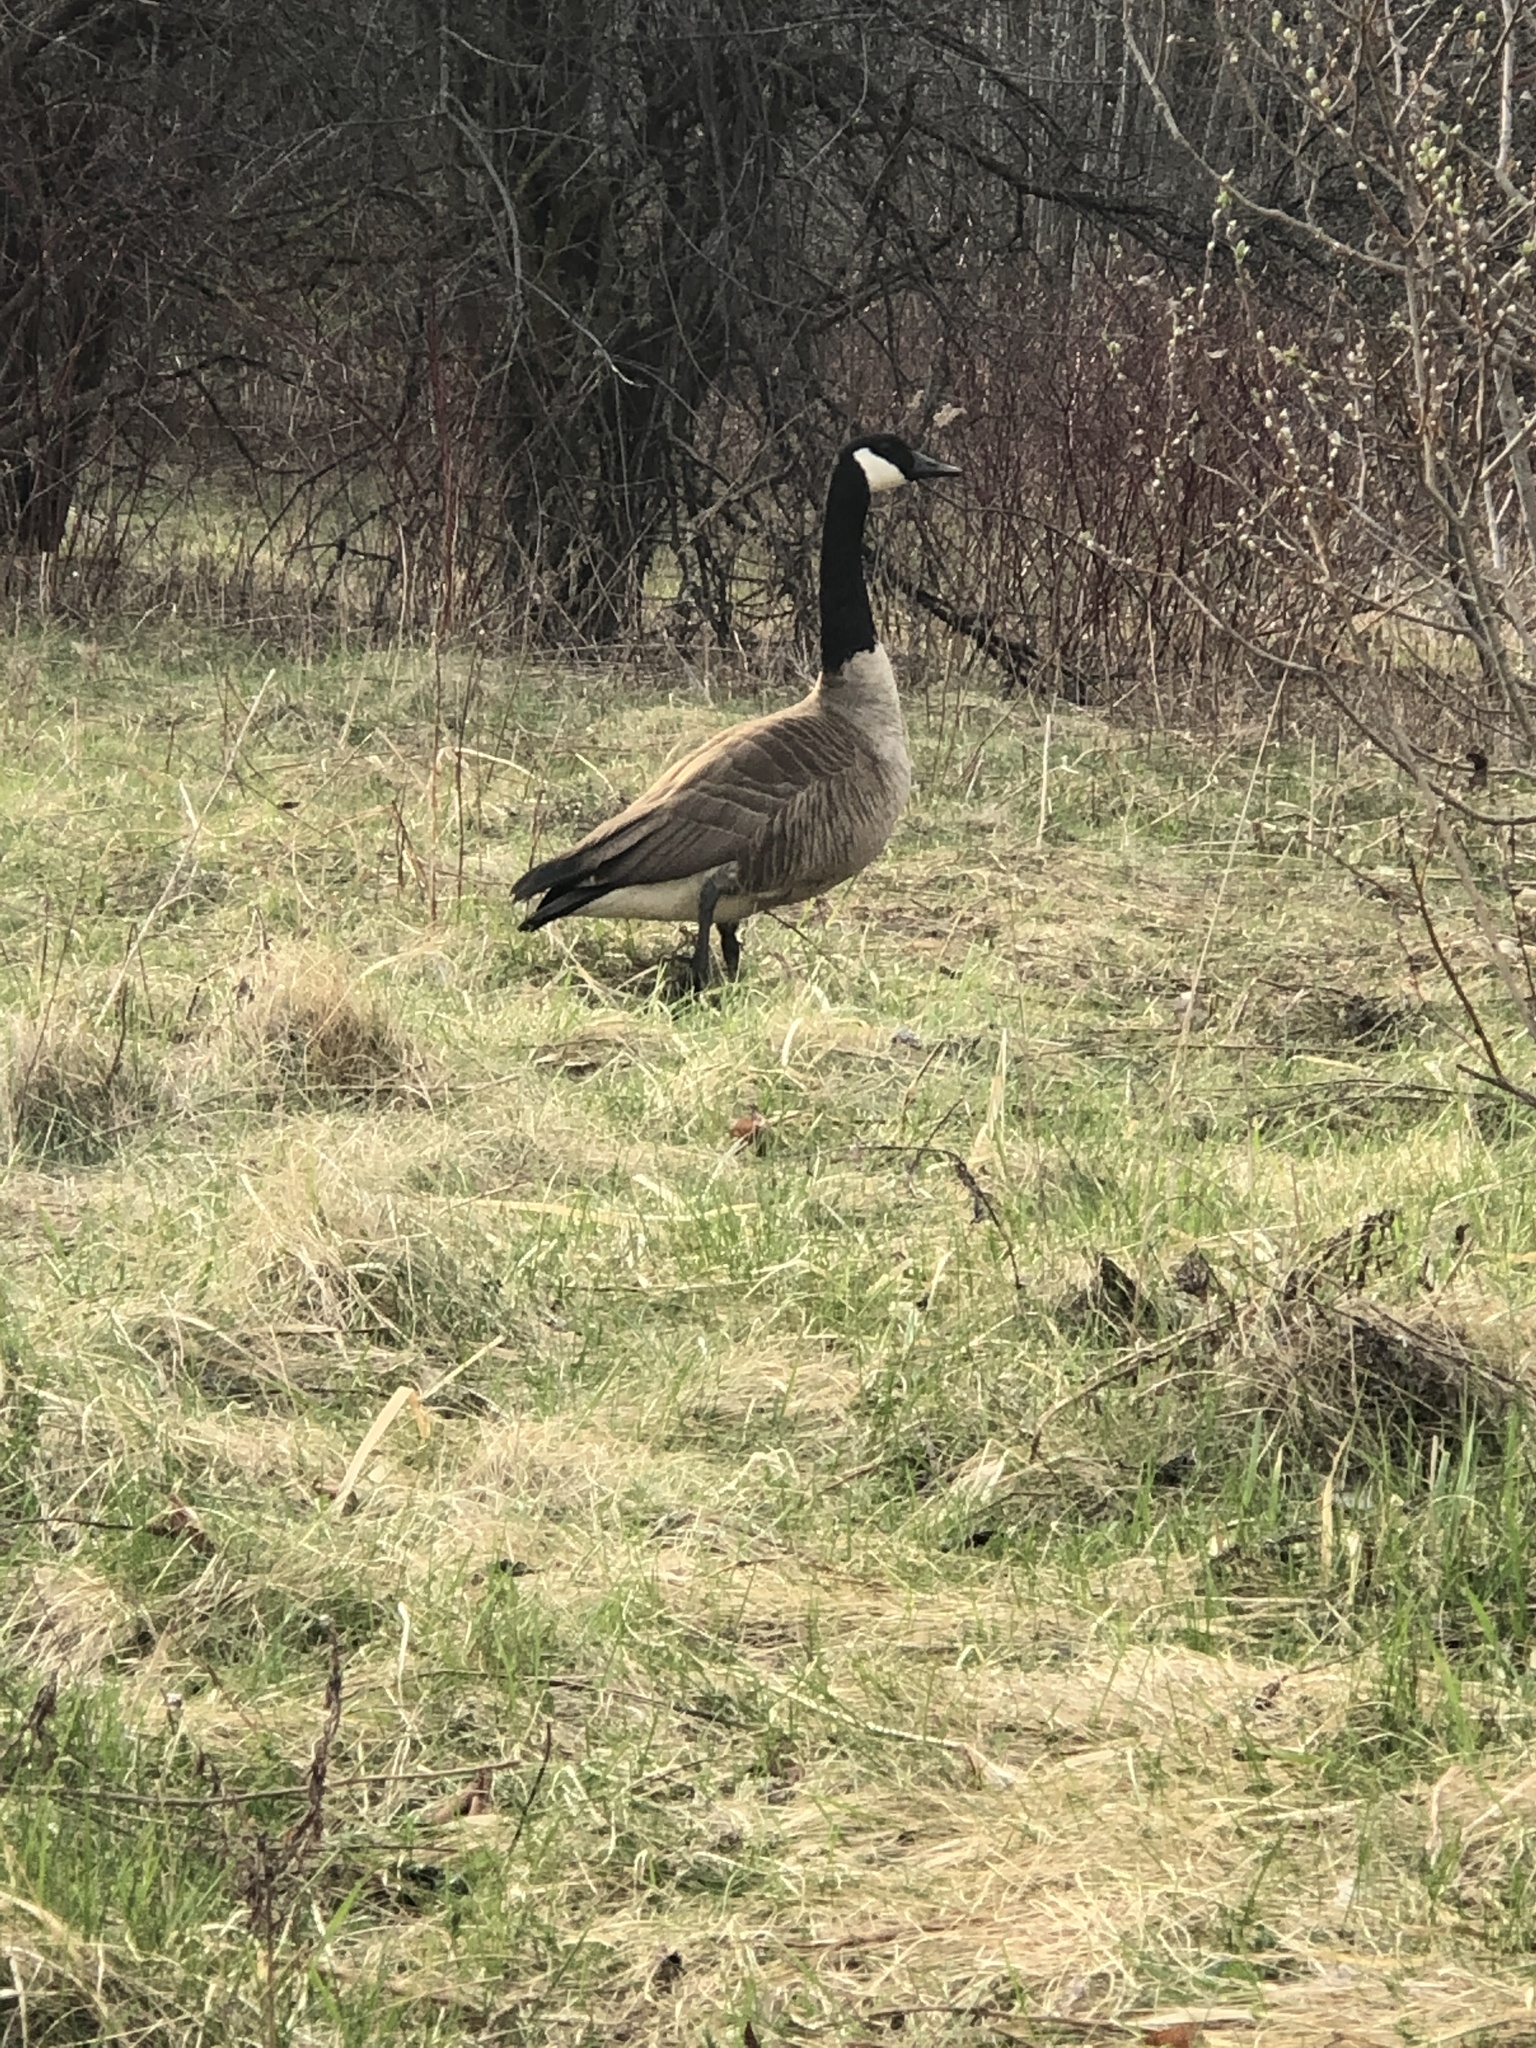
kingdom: Animalia
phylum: Chordata
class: Aves
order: Anseriformes
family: Anatidae
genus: Branta
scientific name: Branta canadensis
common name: Canada goose
